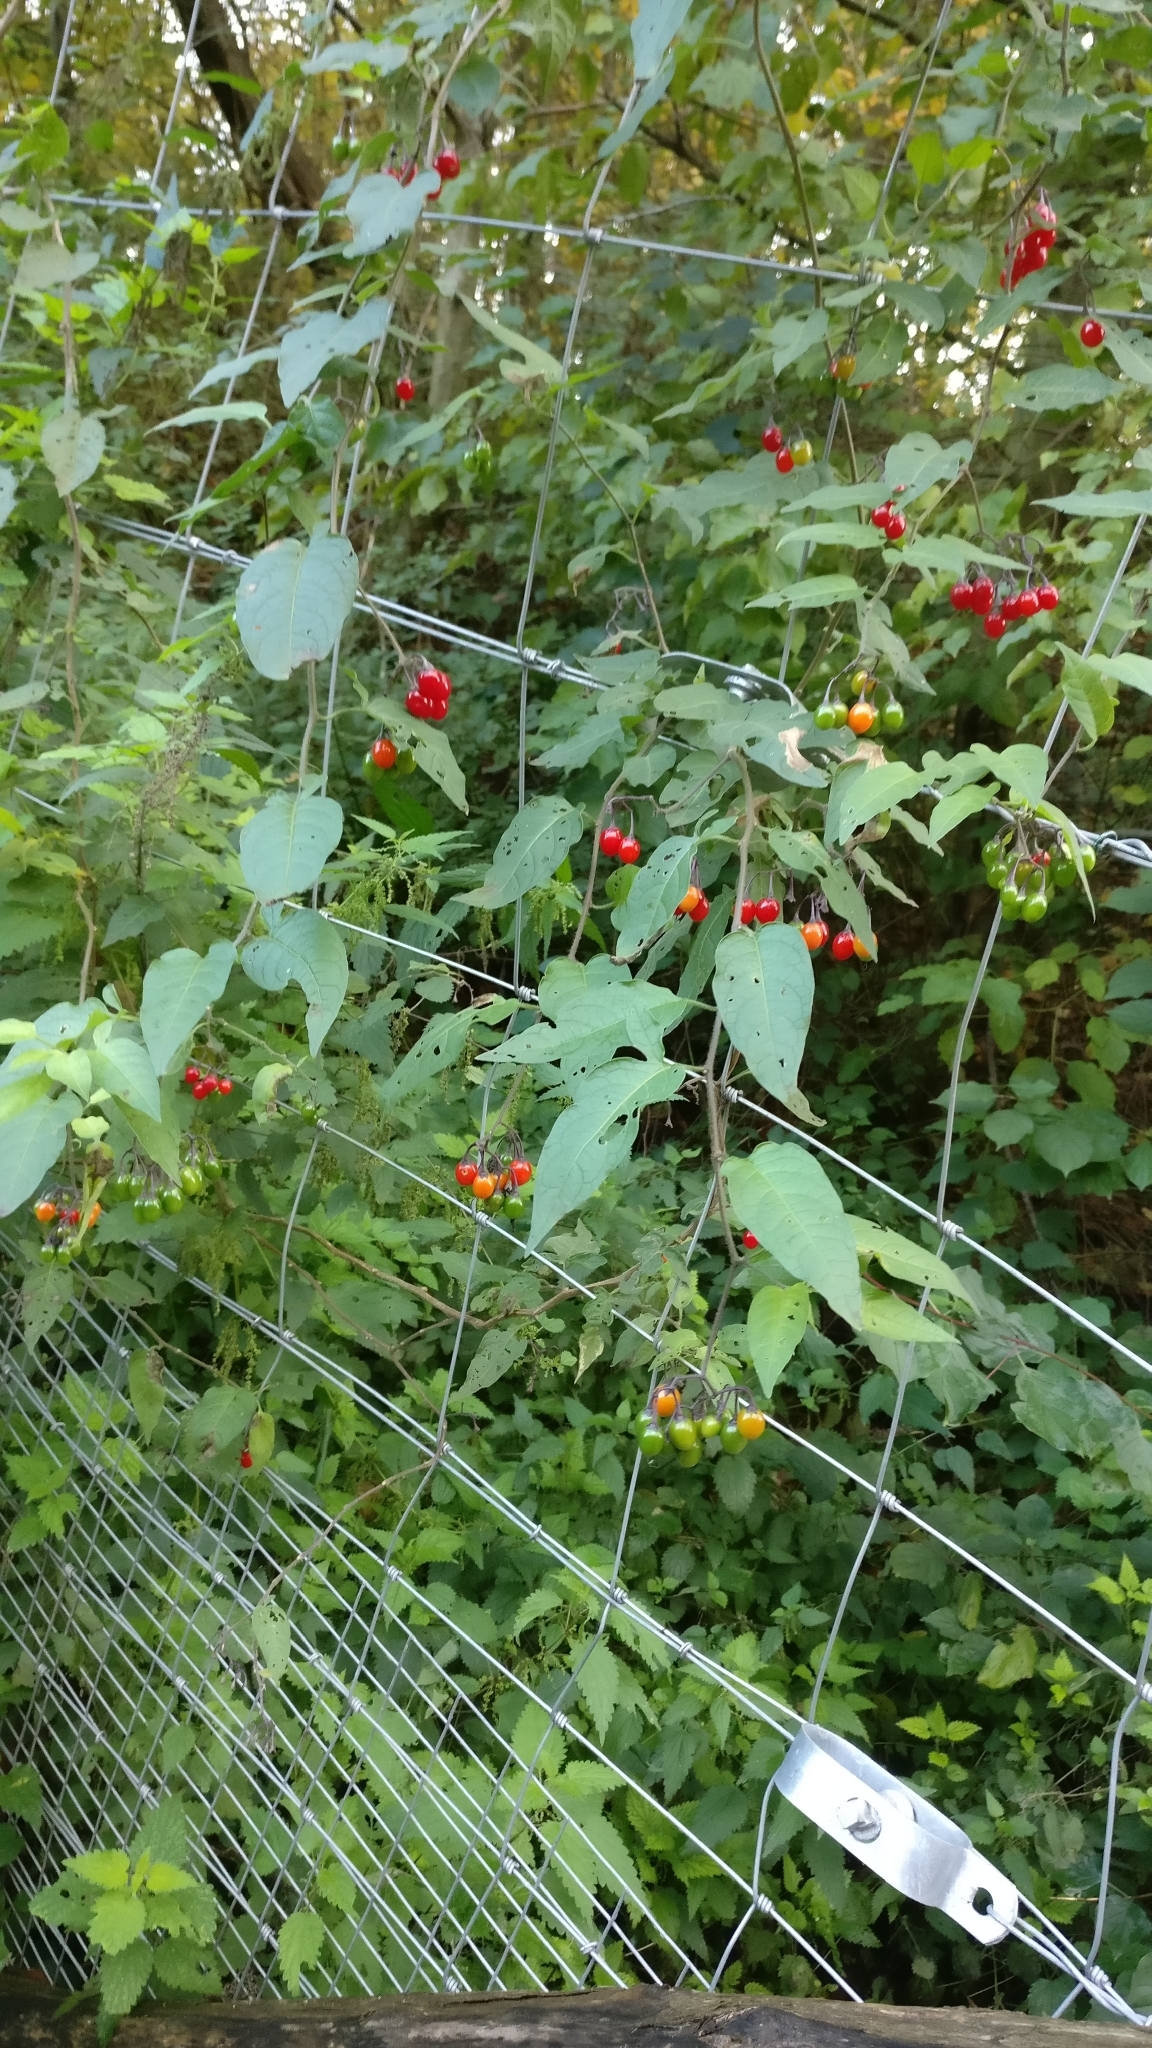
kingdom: Plantae
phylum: Tracheophyta
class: Magnoliopsida
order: Solanales
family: Solanaceae
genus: Solanum
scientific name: Solanum dulcamara
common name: Climbing nightshade
